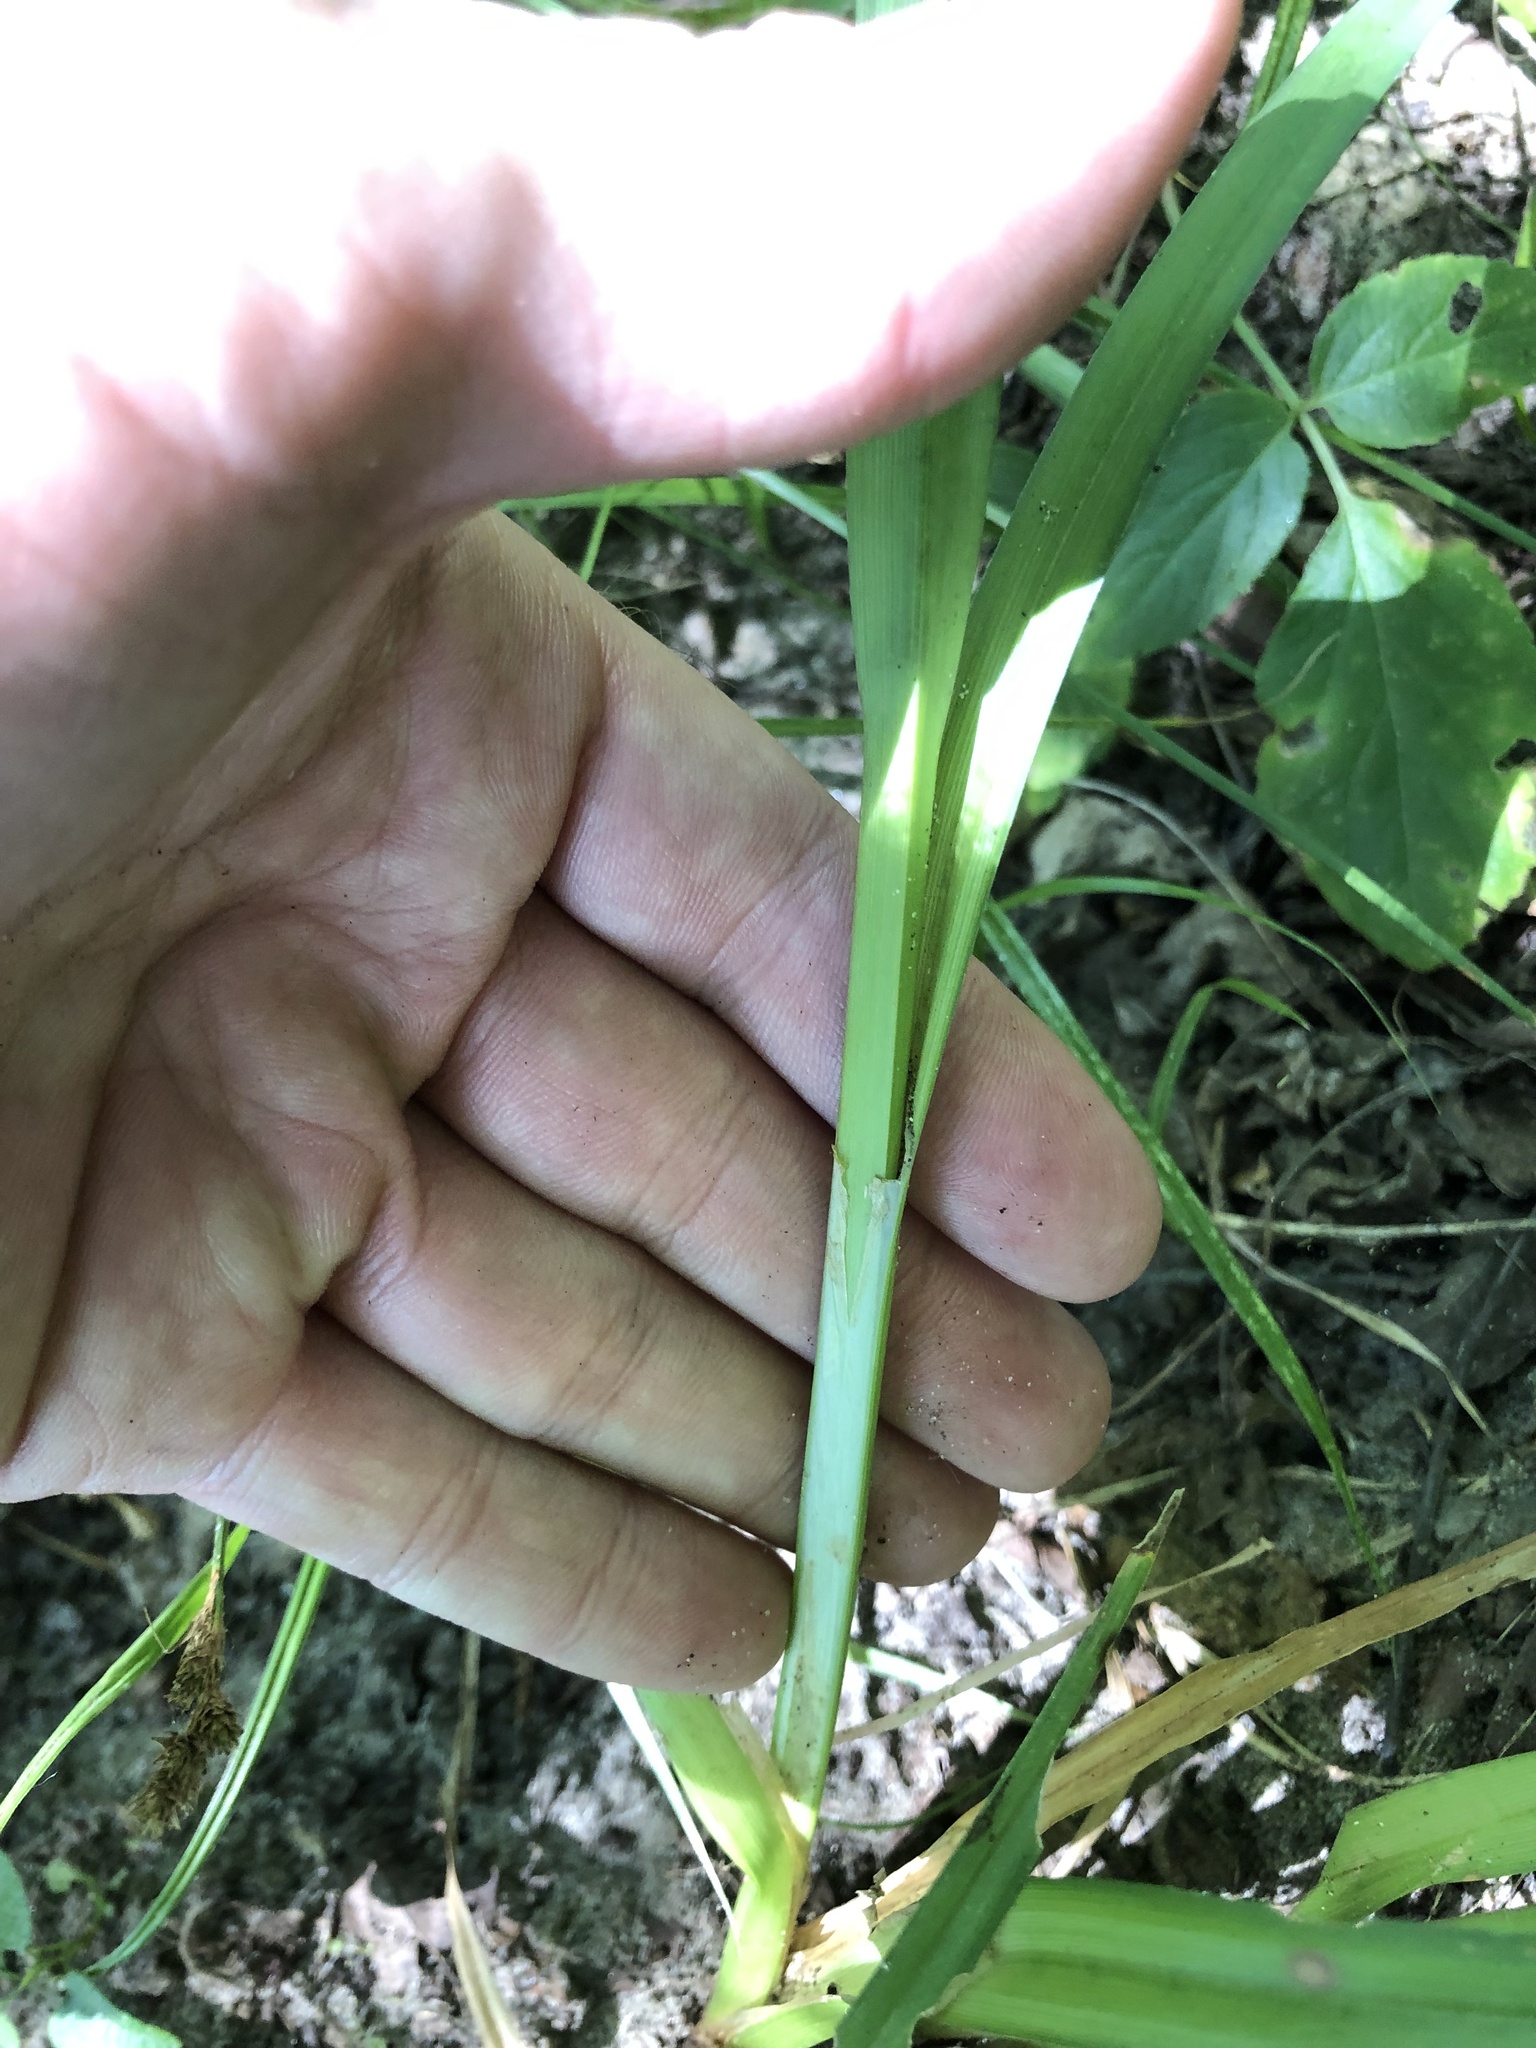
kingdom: Plantae
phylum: Tracheophyta
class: Liliopsida
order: Poales
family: Cyperaceae
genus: Carex
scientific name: Carex crus-corvi
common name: Crow-spur sedge
